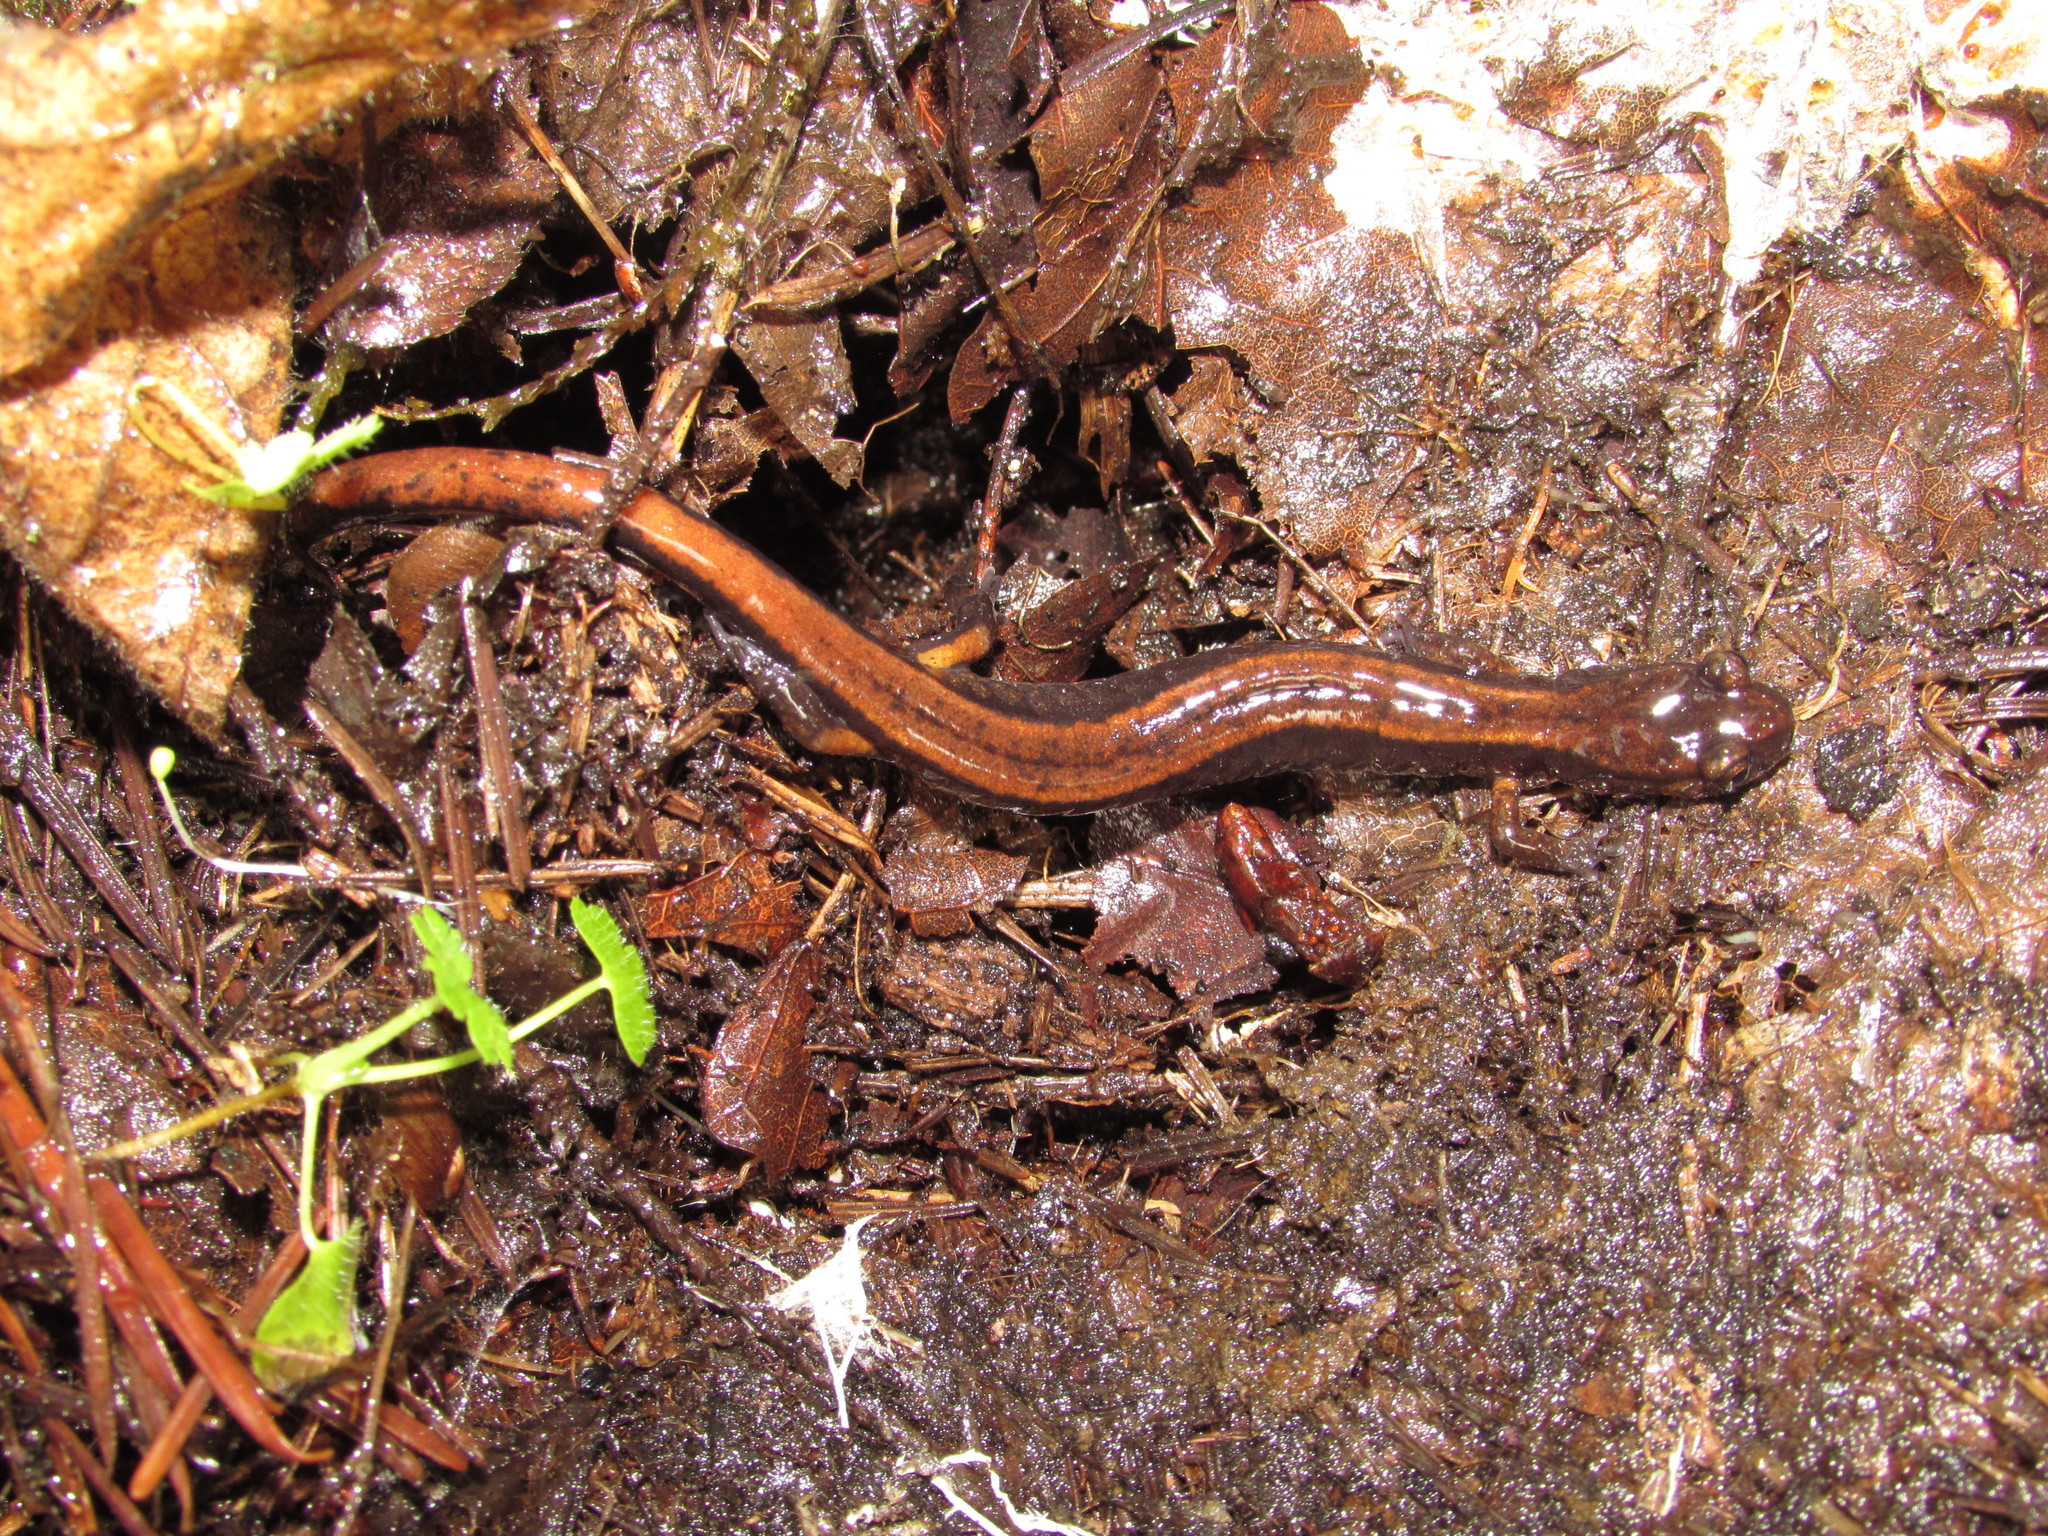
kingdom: Animalia
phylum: Chordata
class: Amphibia
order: Caudata
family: Plethodontidae
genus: Plethodon
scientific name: Plethodon vehiculum
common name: Western red-backed salamander
